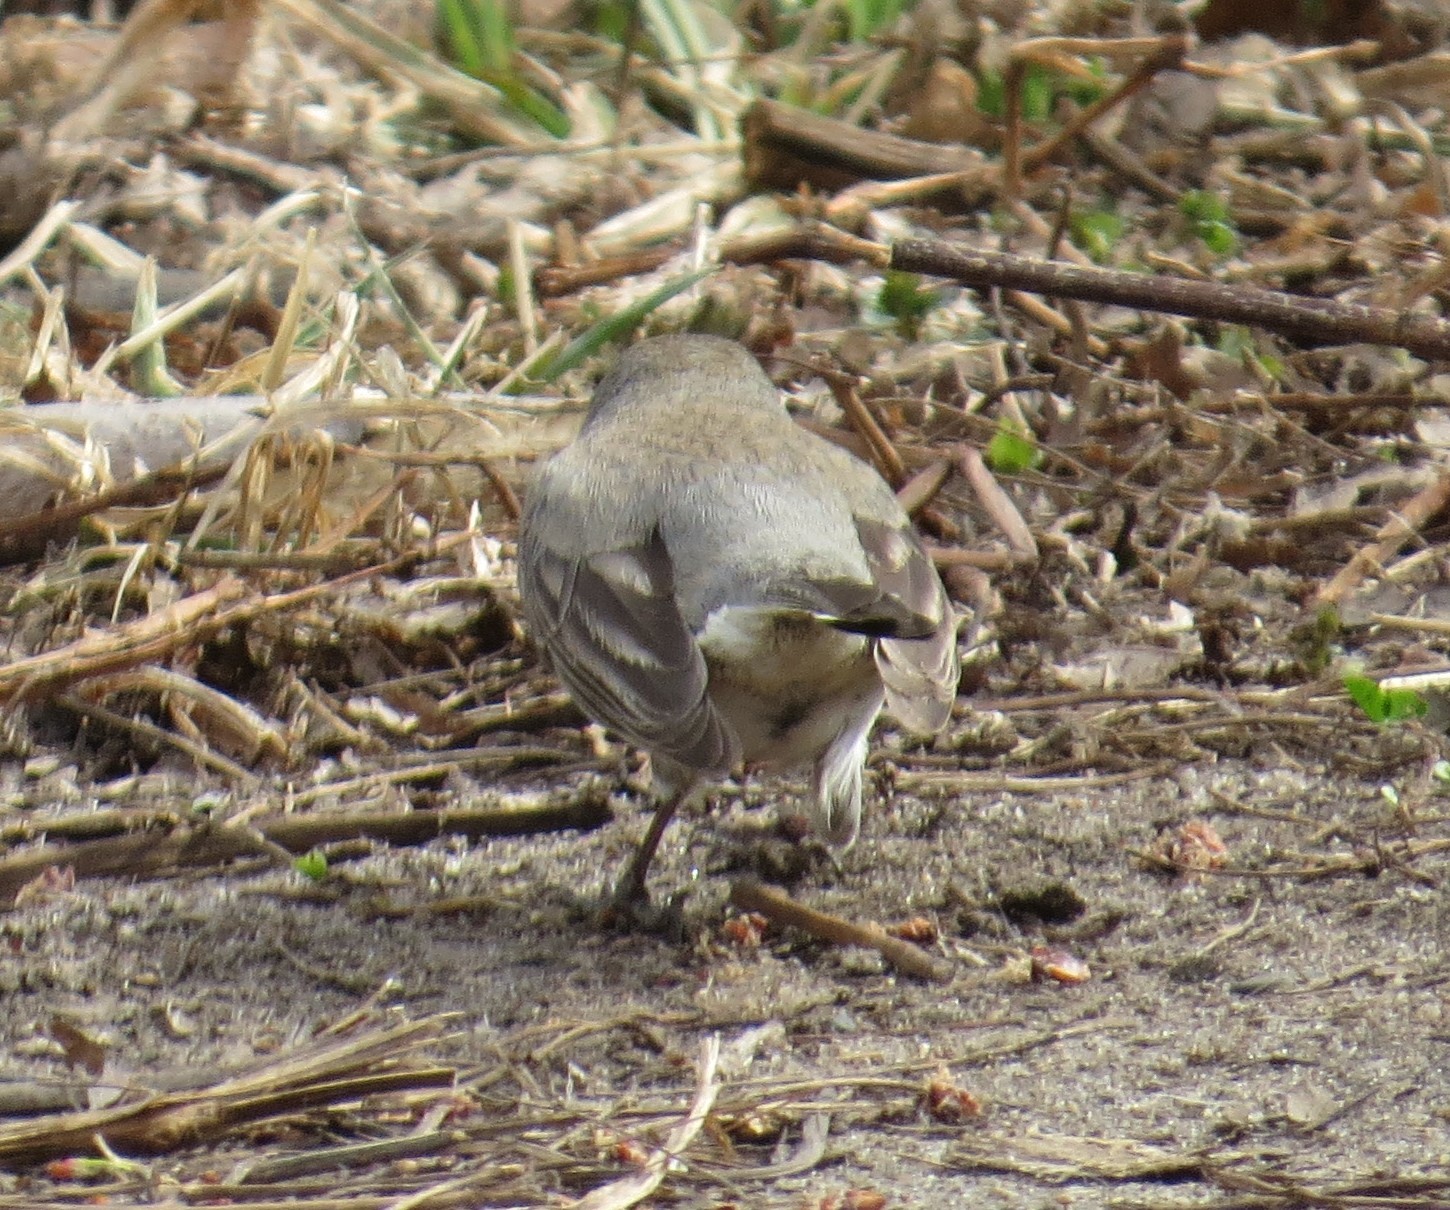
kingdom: Animalia
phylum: Chordata
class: Aves
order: Passeriformes
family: Passerellidae
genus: Junco
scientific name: Junco hyemalis
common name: Dark-eyed junco
